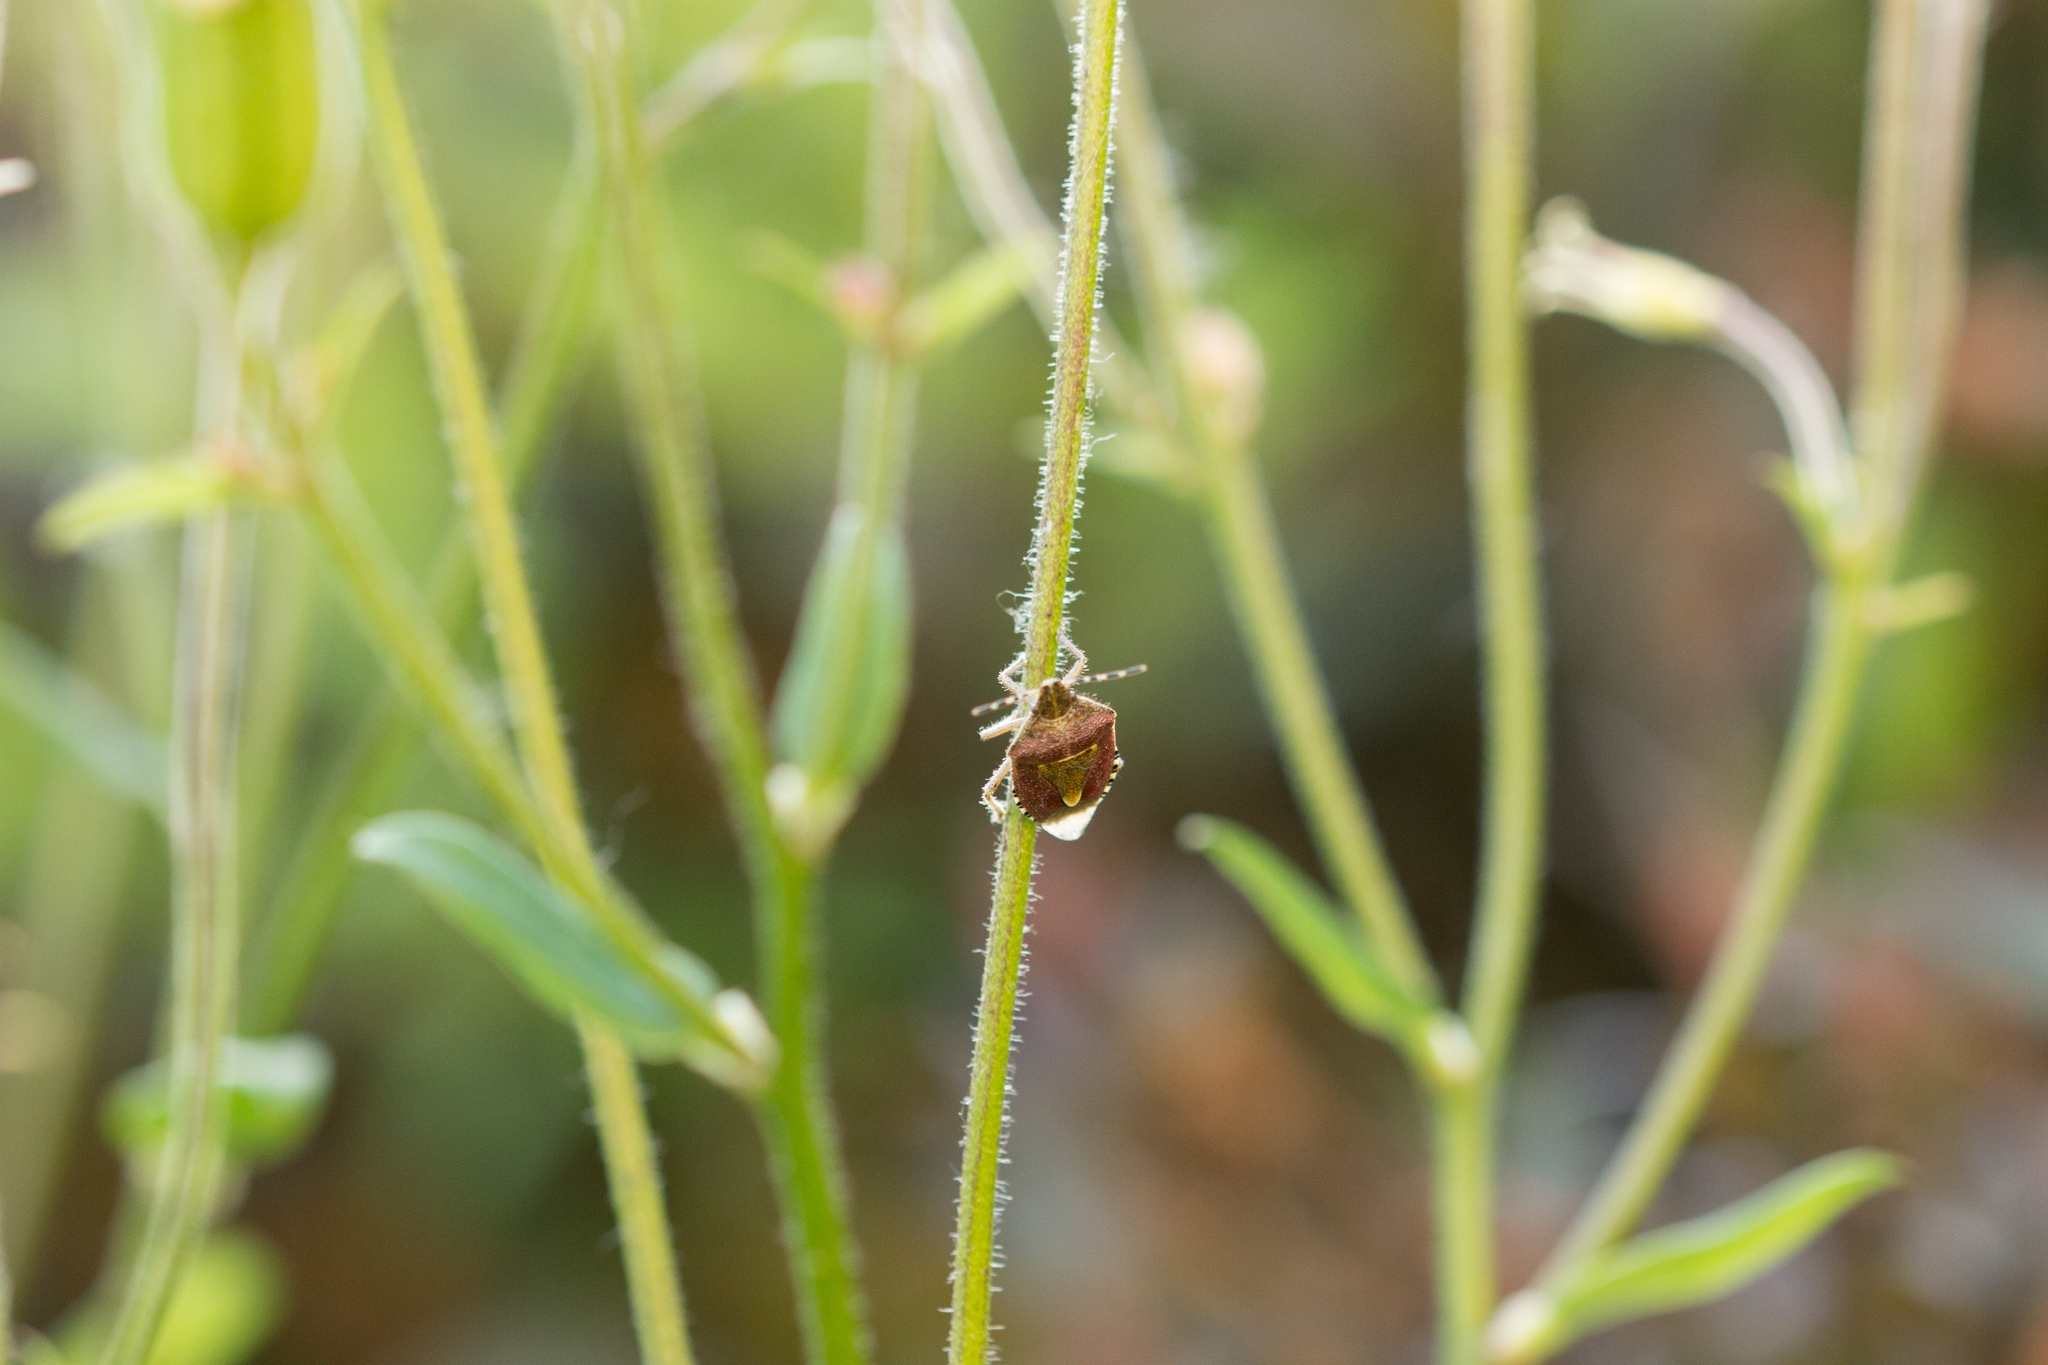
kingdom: Animalia
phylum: Arthropoda
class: Insecta
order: Hemiptera
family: Pentatomidae
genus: Dolycoris
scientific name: Dolycoris baccarum
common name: Sloe bug
